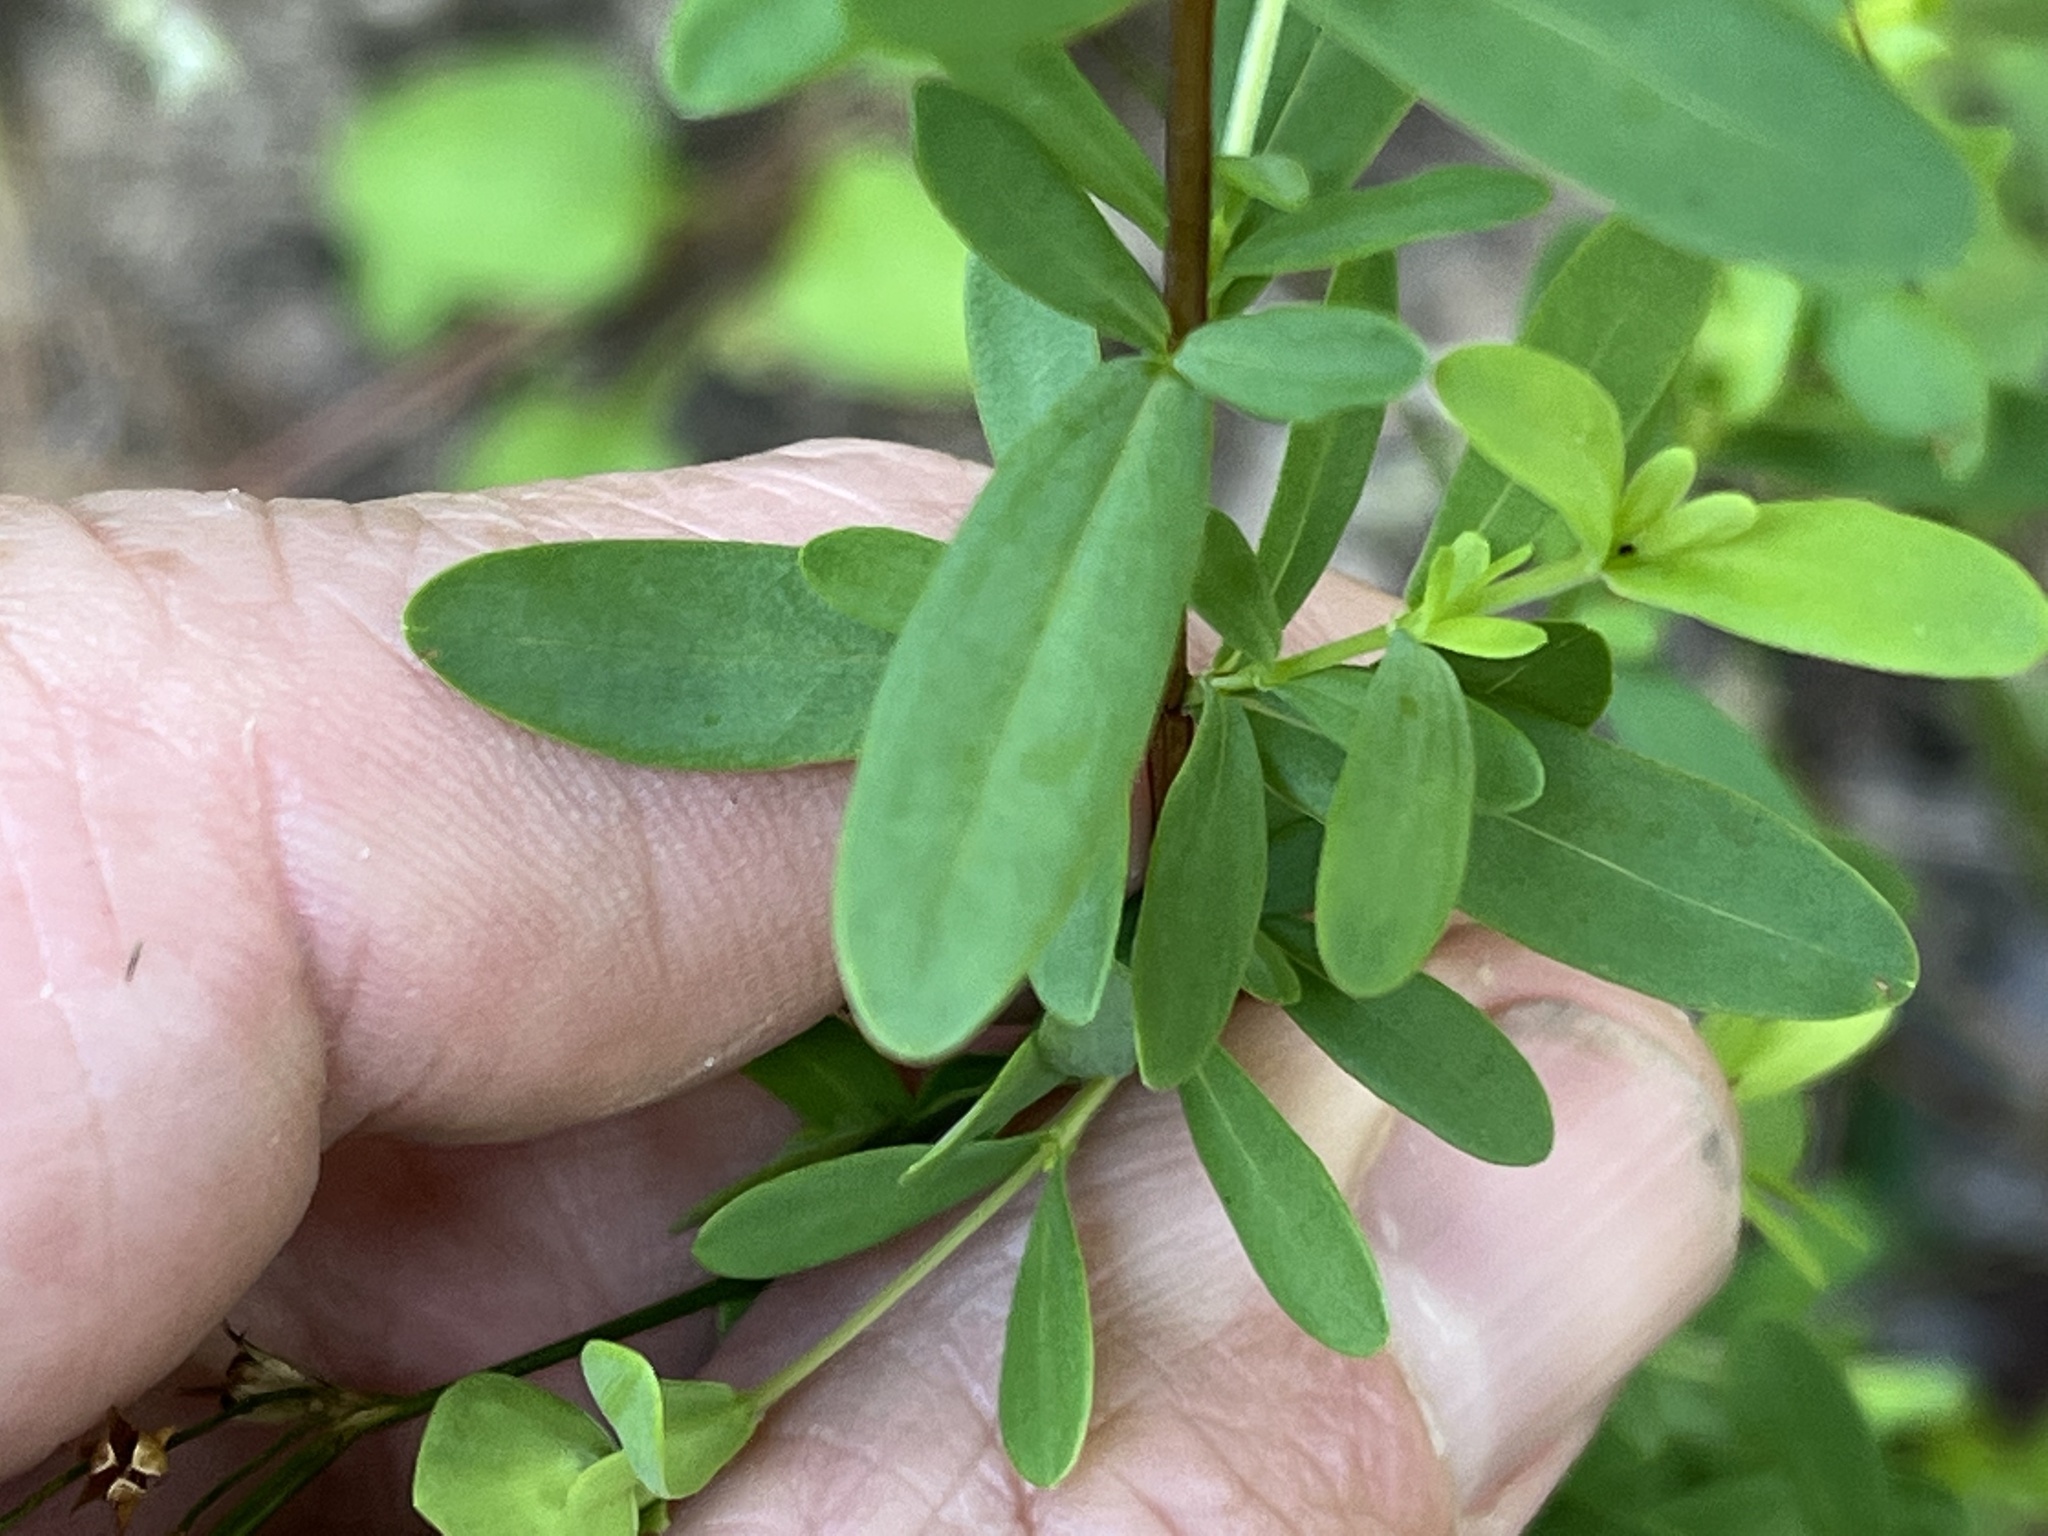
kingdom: Plantae
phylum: Tracheophyta
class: Magnoliopsida
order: Malpighiales
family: Hypericaceae
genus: Hypericum
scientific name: Hypericum hypericoides
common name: St. andrew's cross
